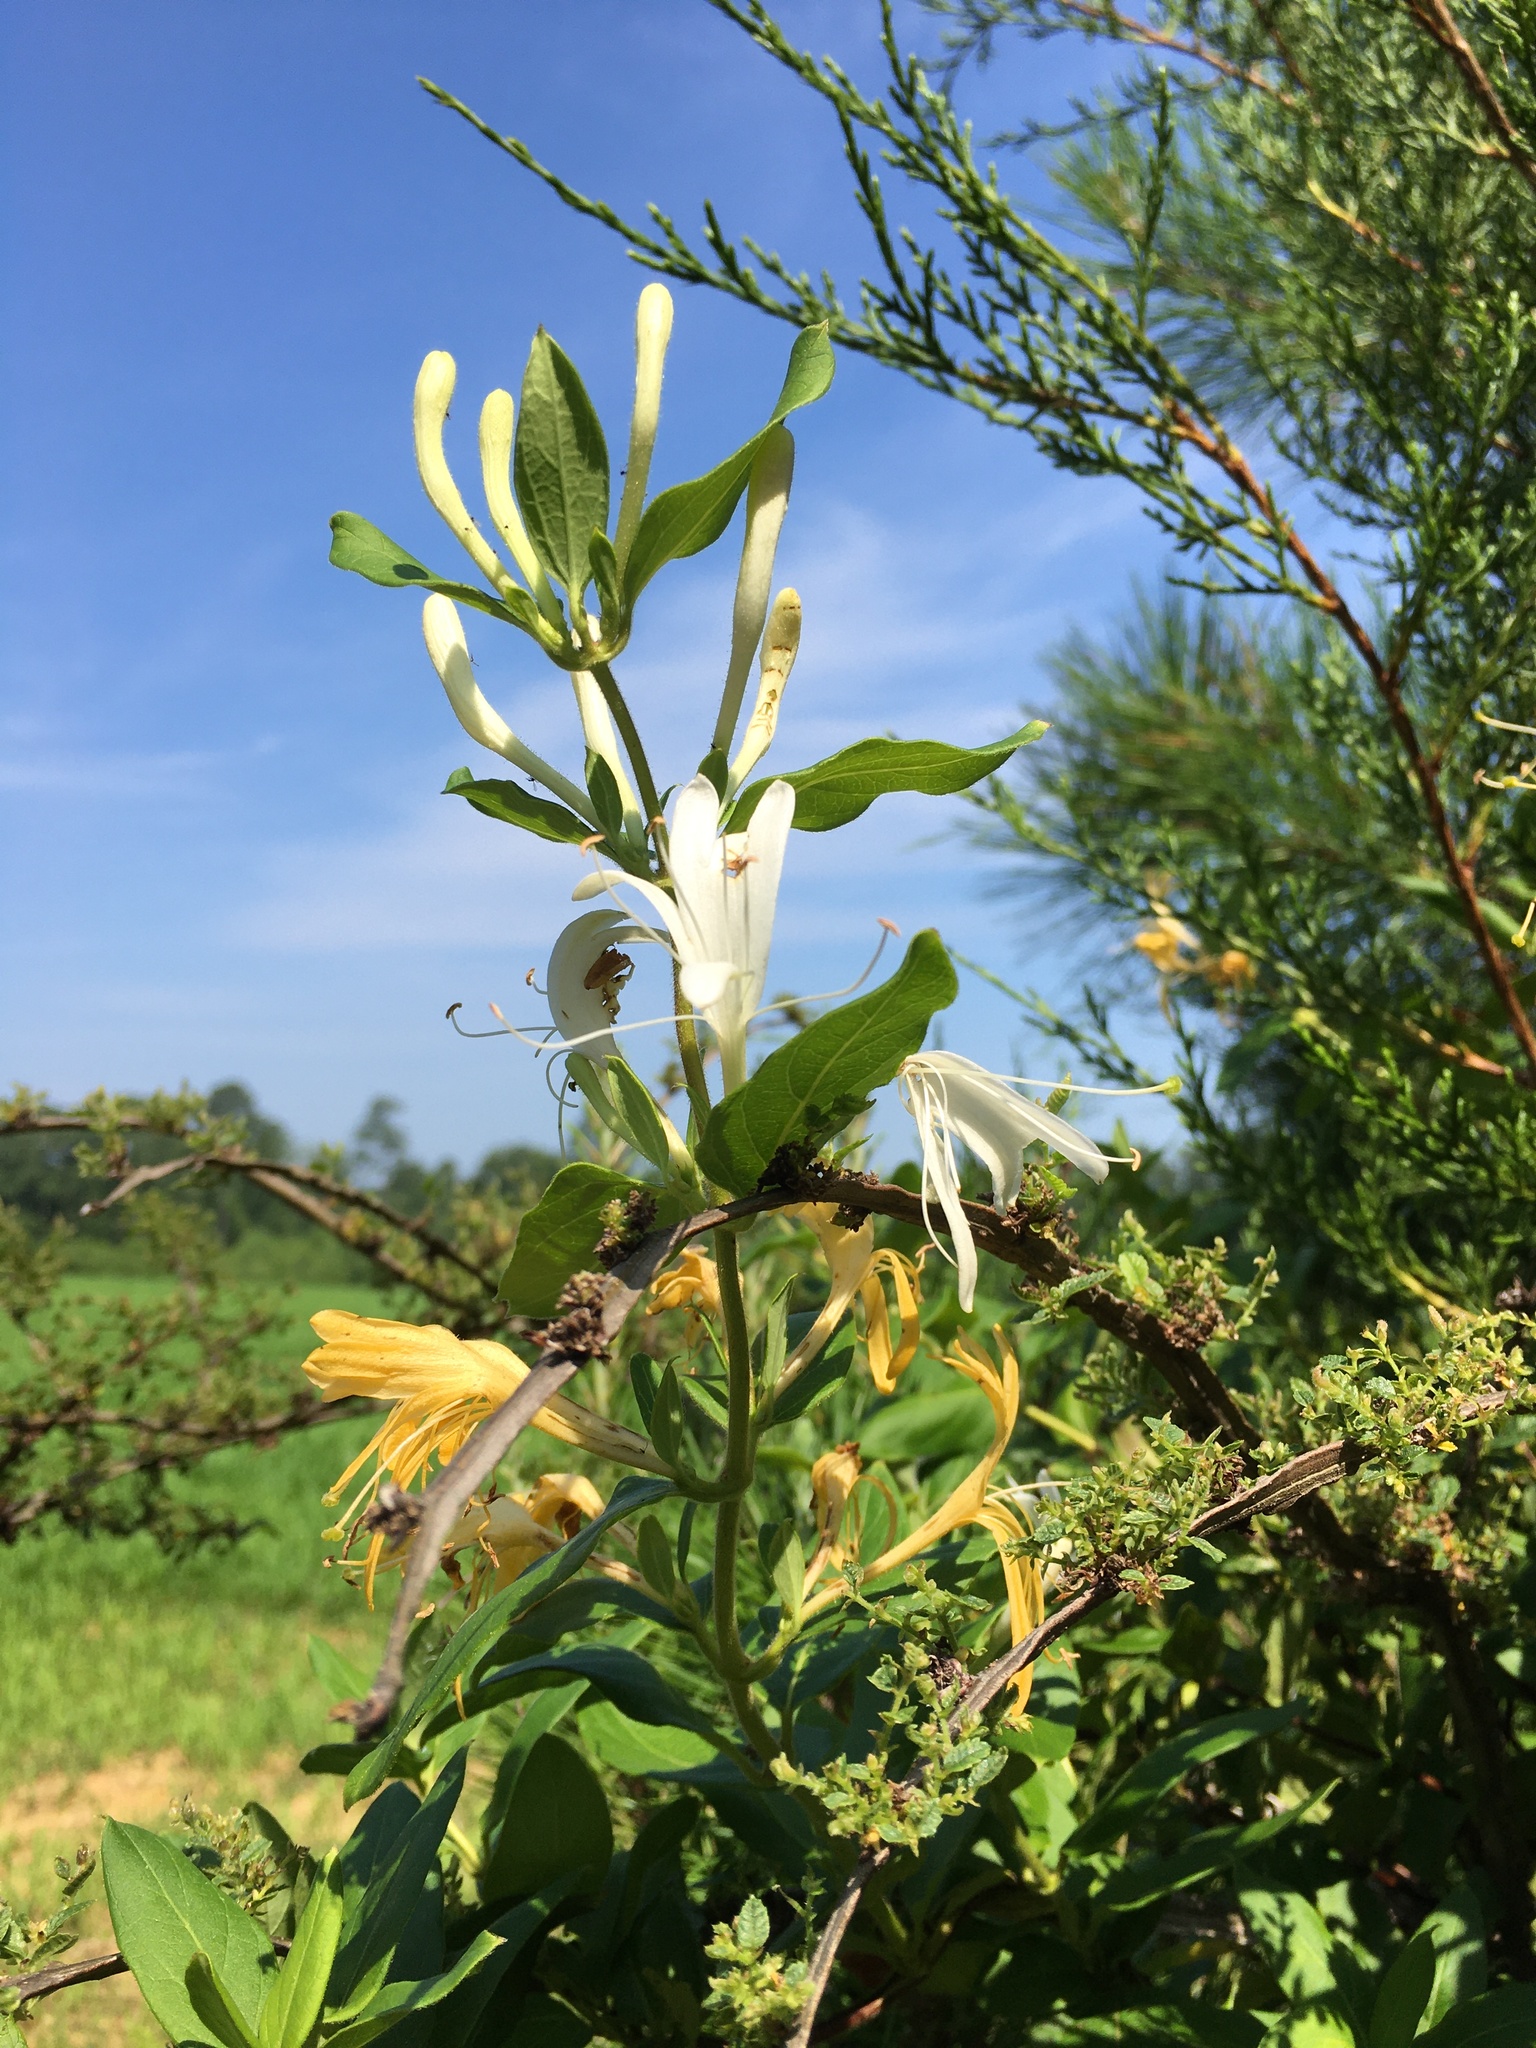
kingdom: Plantae
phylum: Tracheophyta
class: Magnoliopsida
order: Dipsacales
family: Caprifoliaceae
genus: Lonicera
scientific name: Lonicera japonica
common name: Japanese honeysuckle
